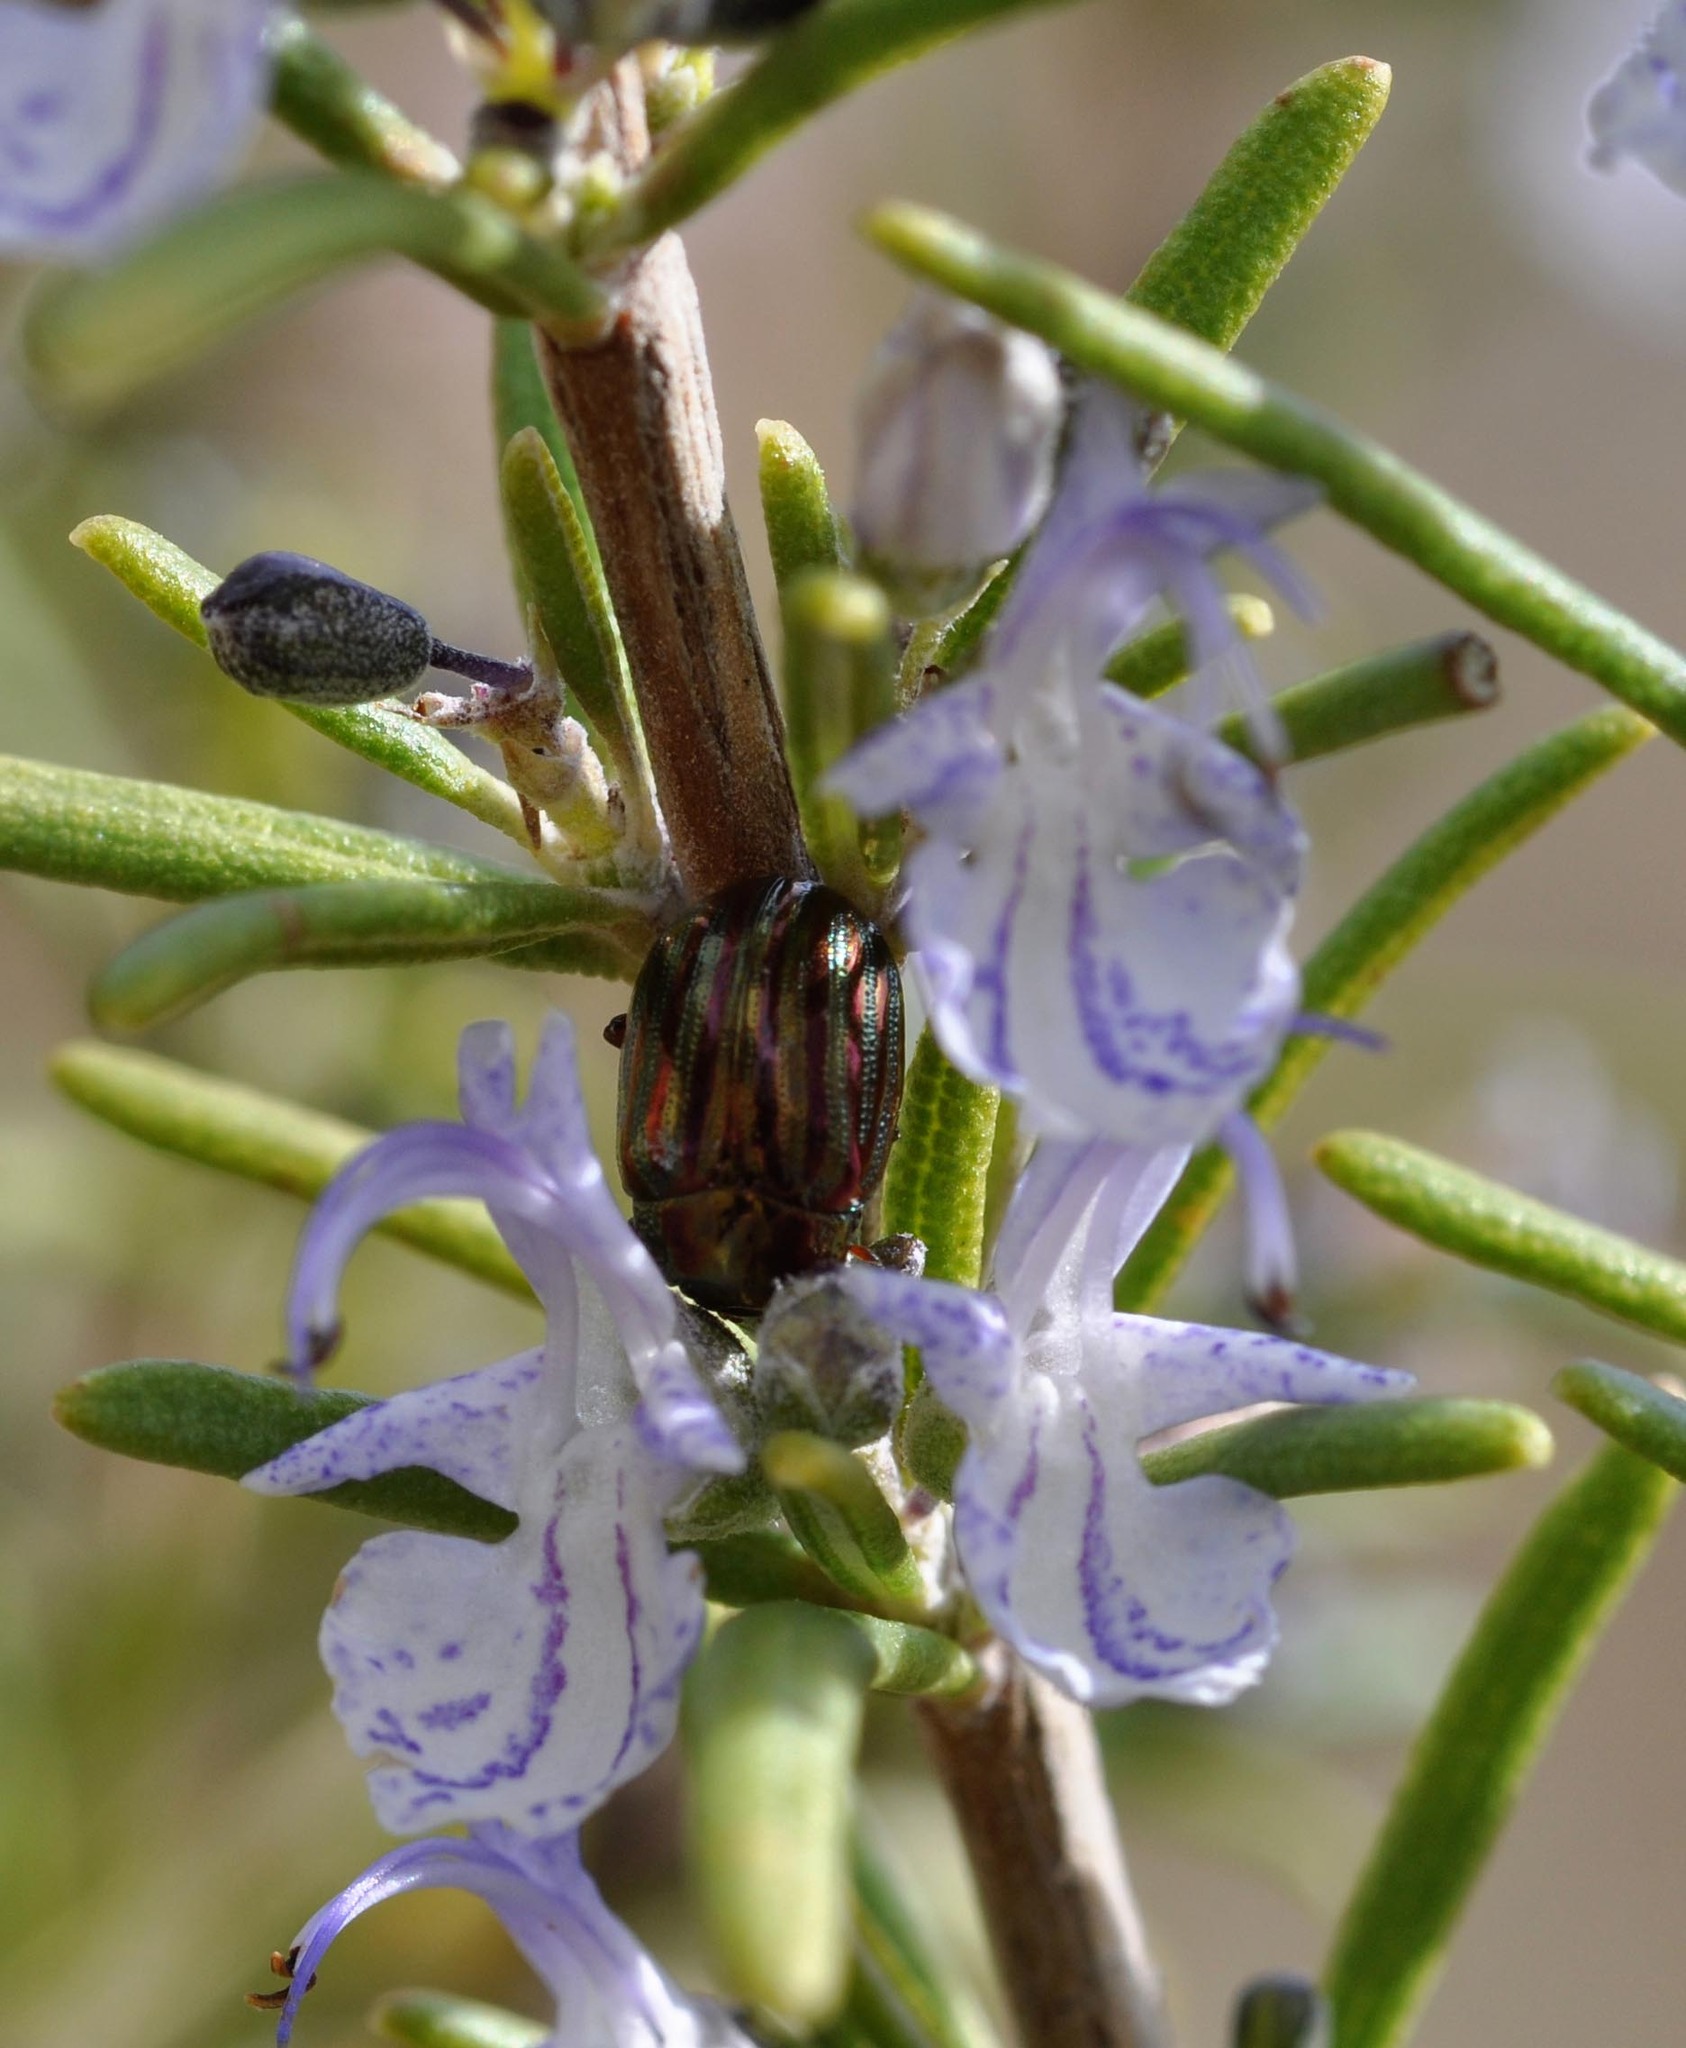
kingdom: Animalia
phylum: Arthropoda
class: Insecta
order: Coleoptera
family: Chrysomelidae
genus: Chrysolina
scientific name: Chrysolina americana
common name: Rosemary beetle
